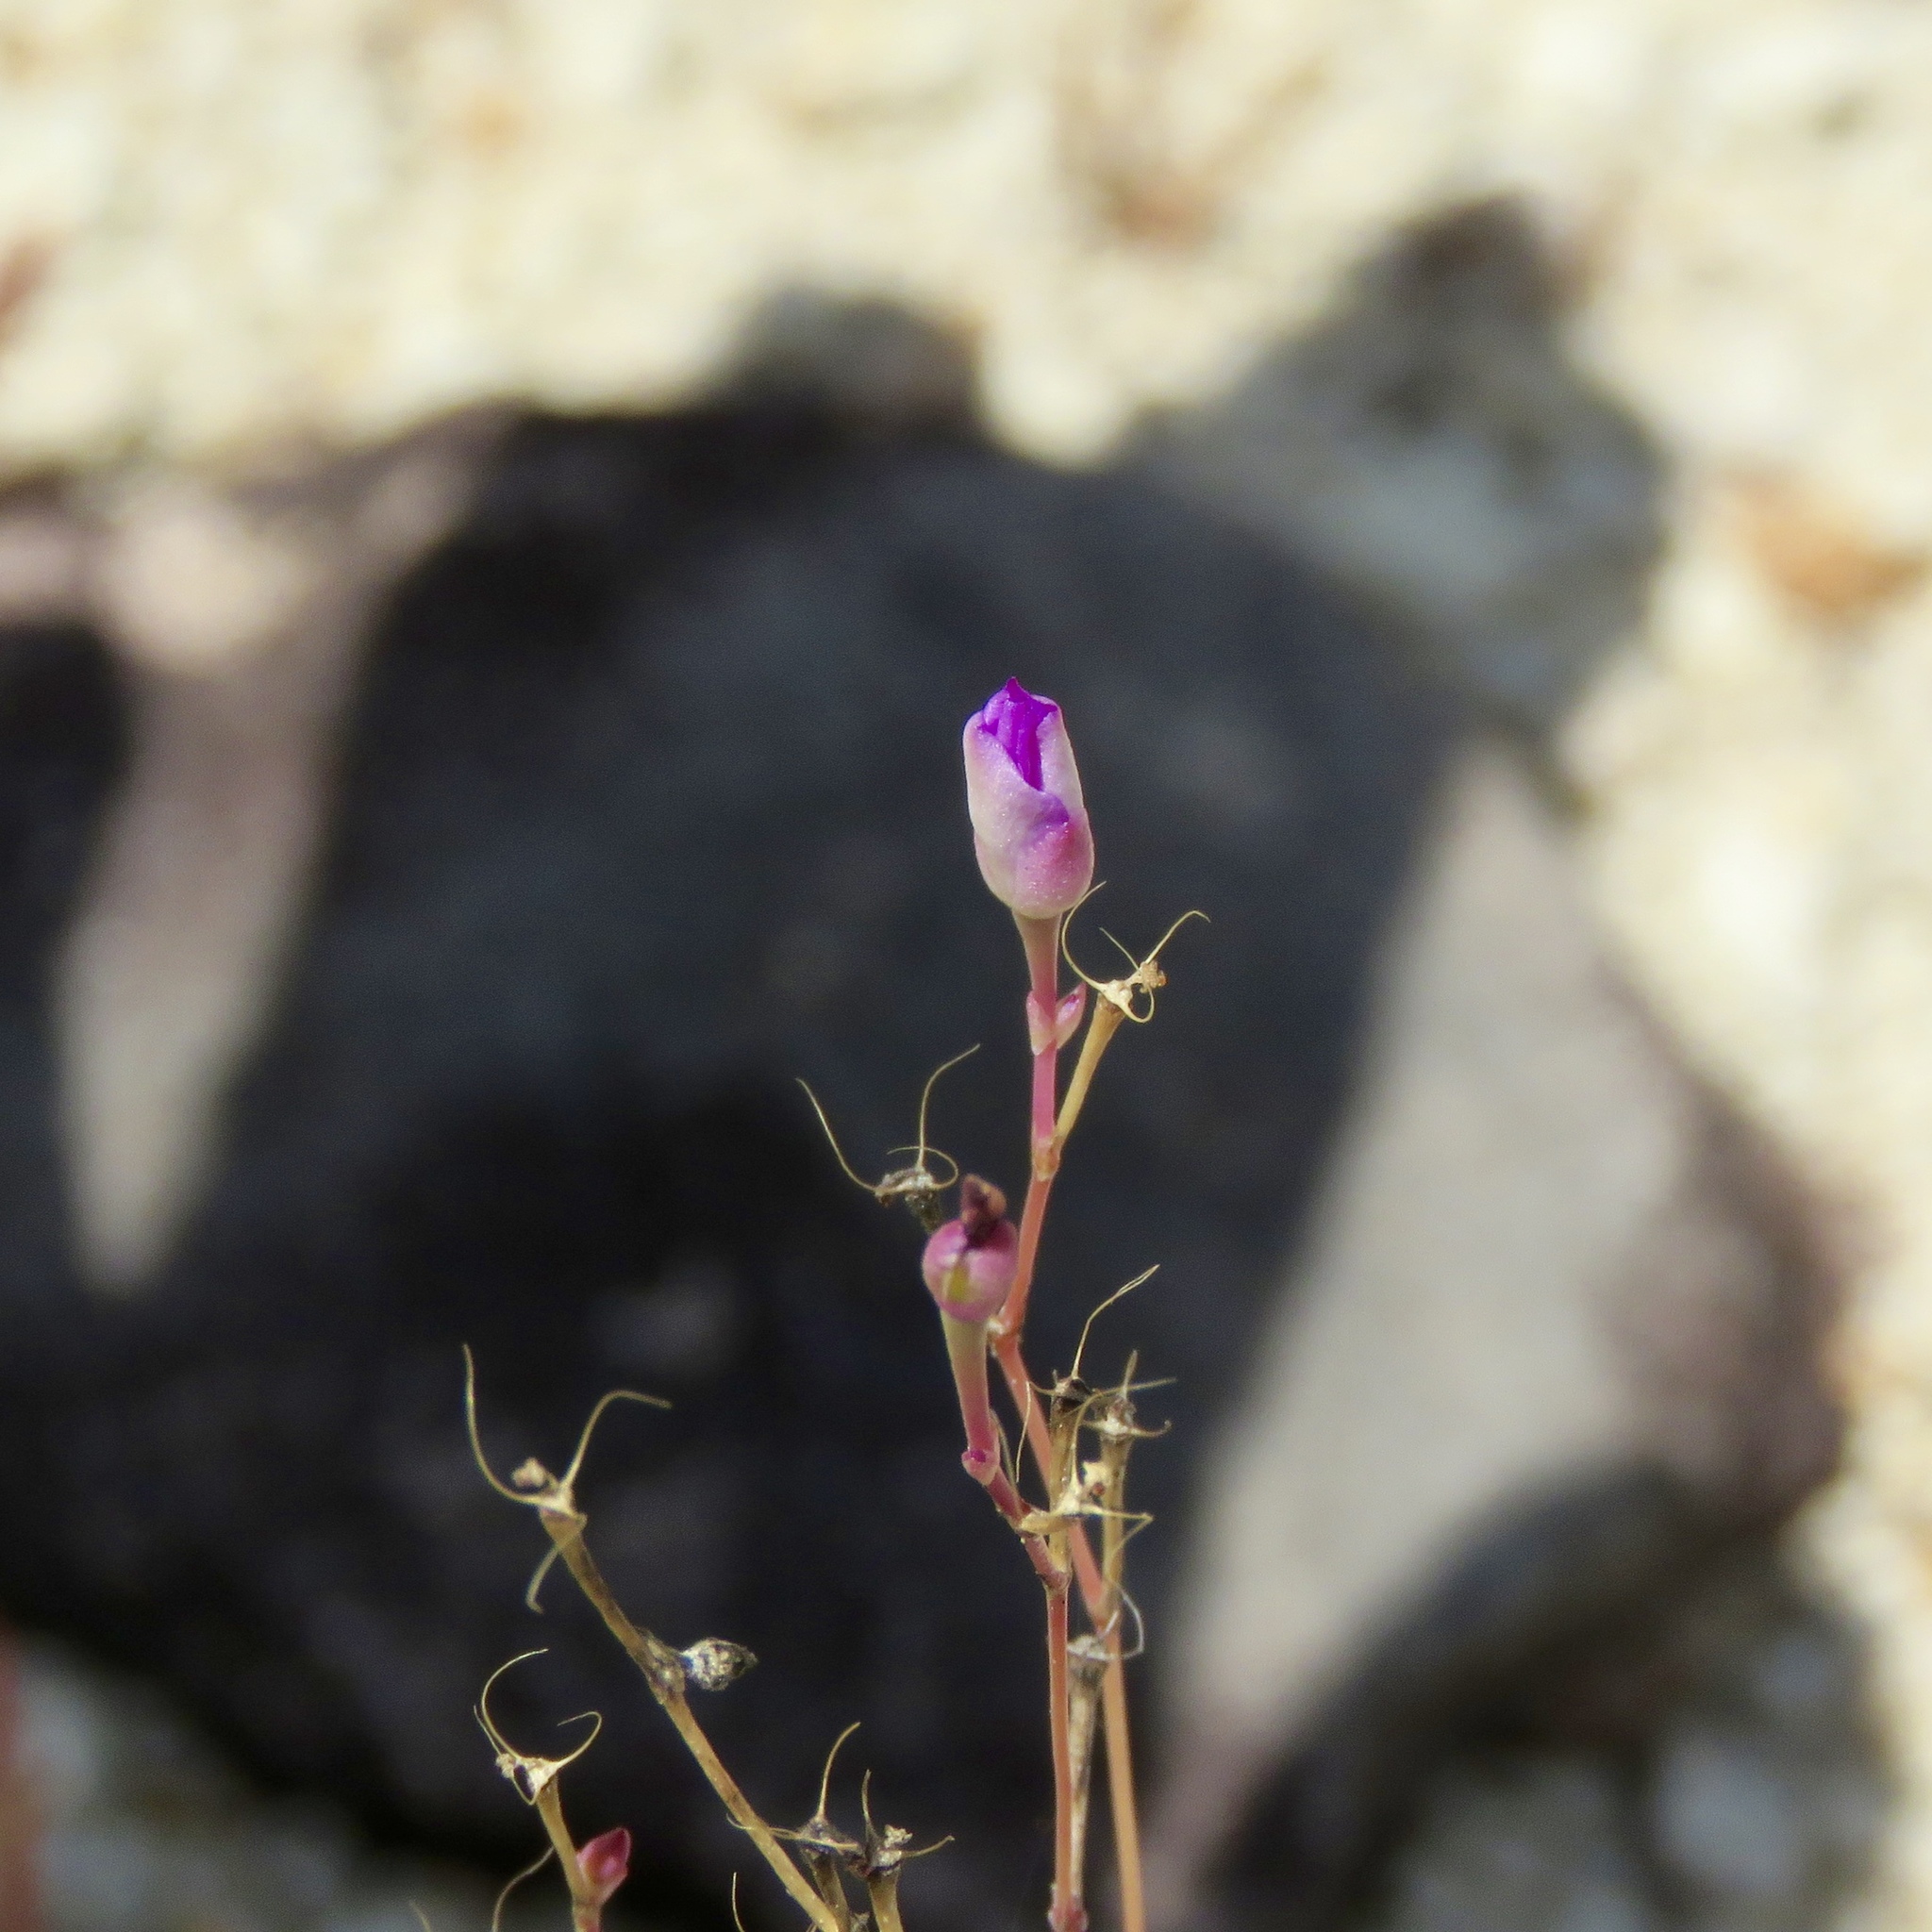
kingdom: Plantae
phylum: Tracheophyta
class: Magnoliopsida
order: Caryophyllales
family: Montiaceae
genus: Phemeranthus
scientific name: Phemeranthus parviflorus
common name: Sunbright
